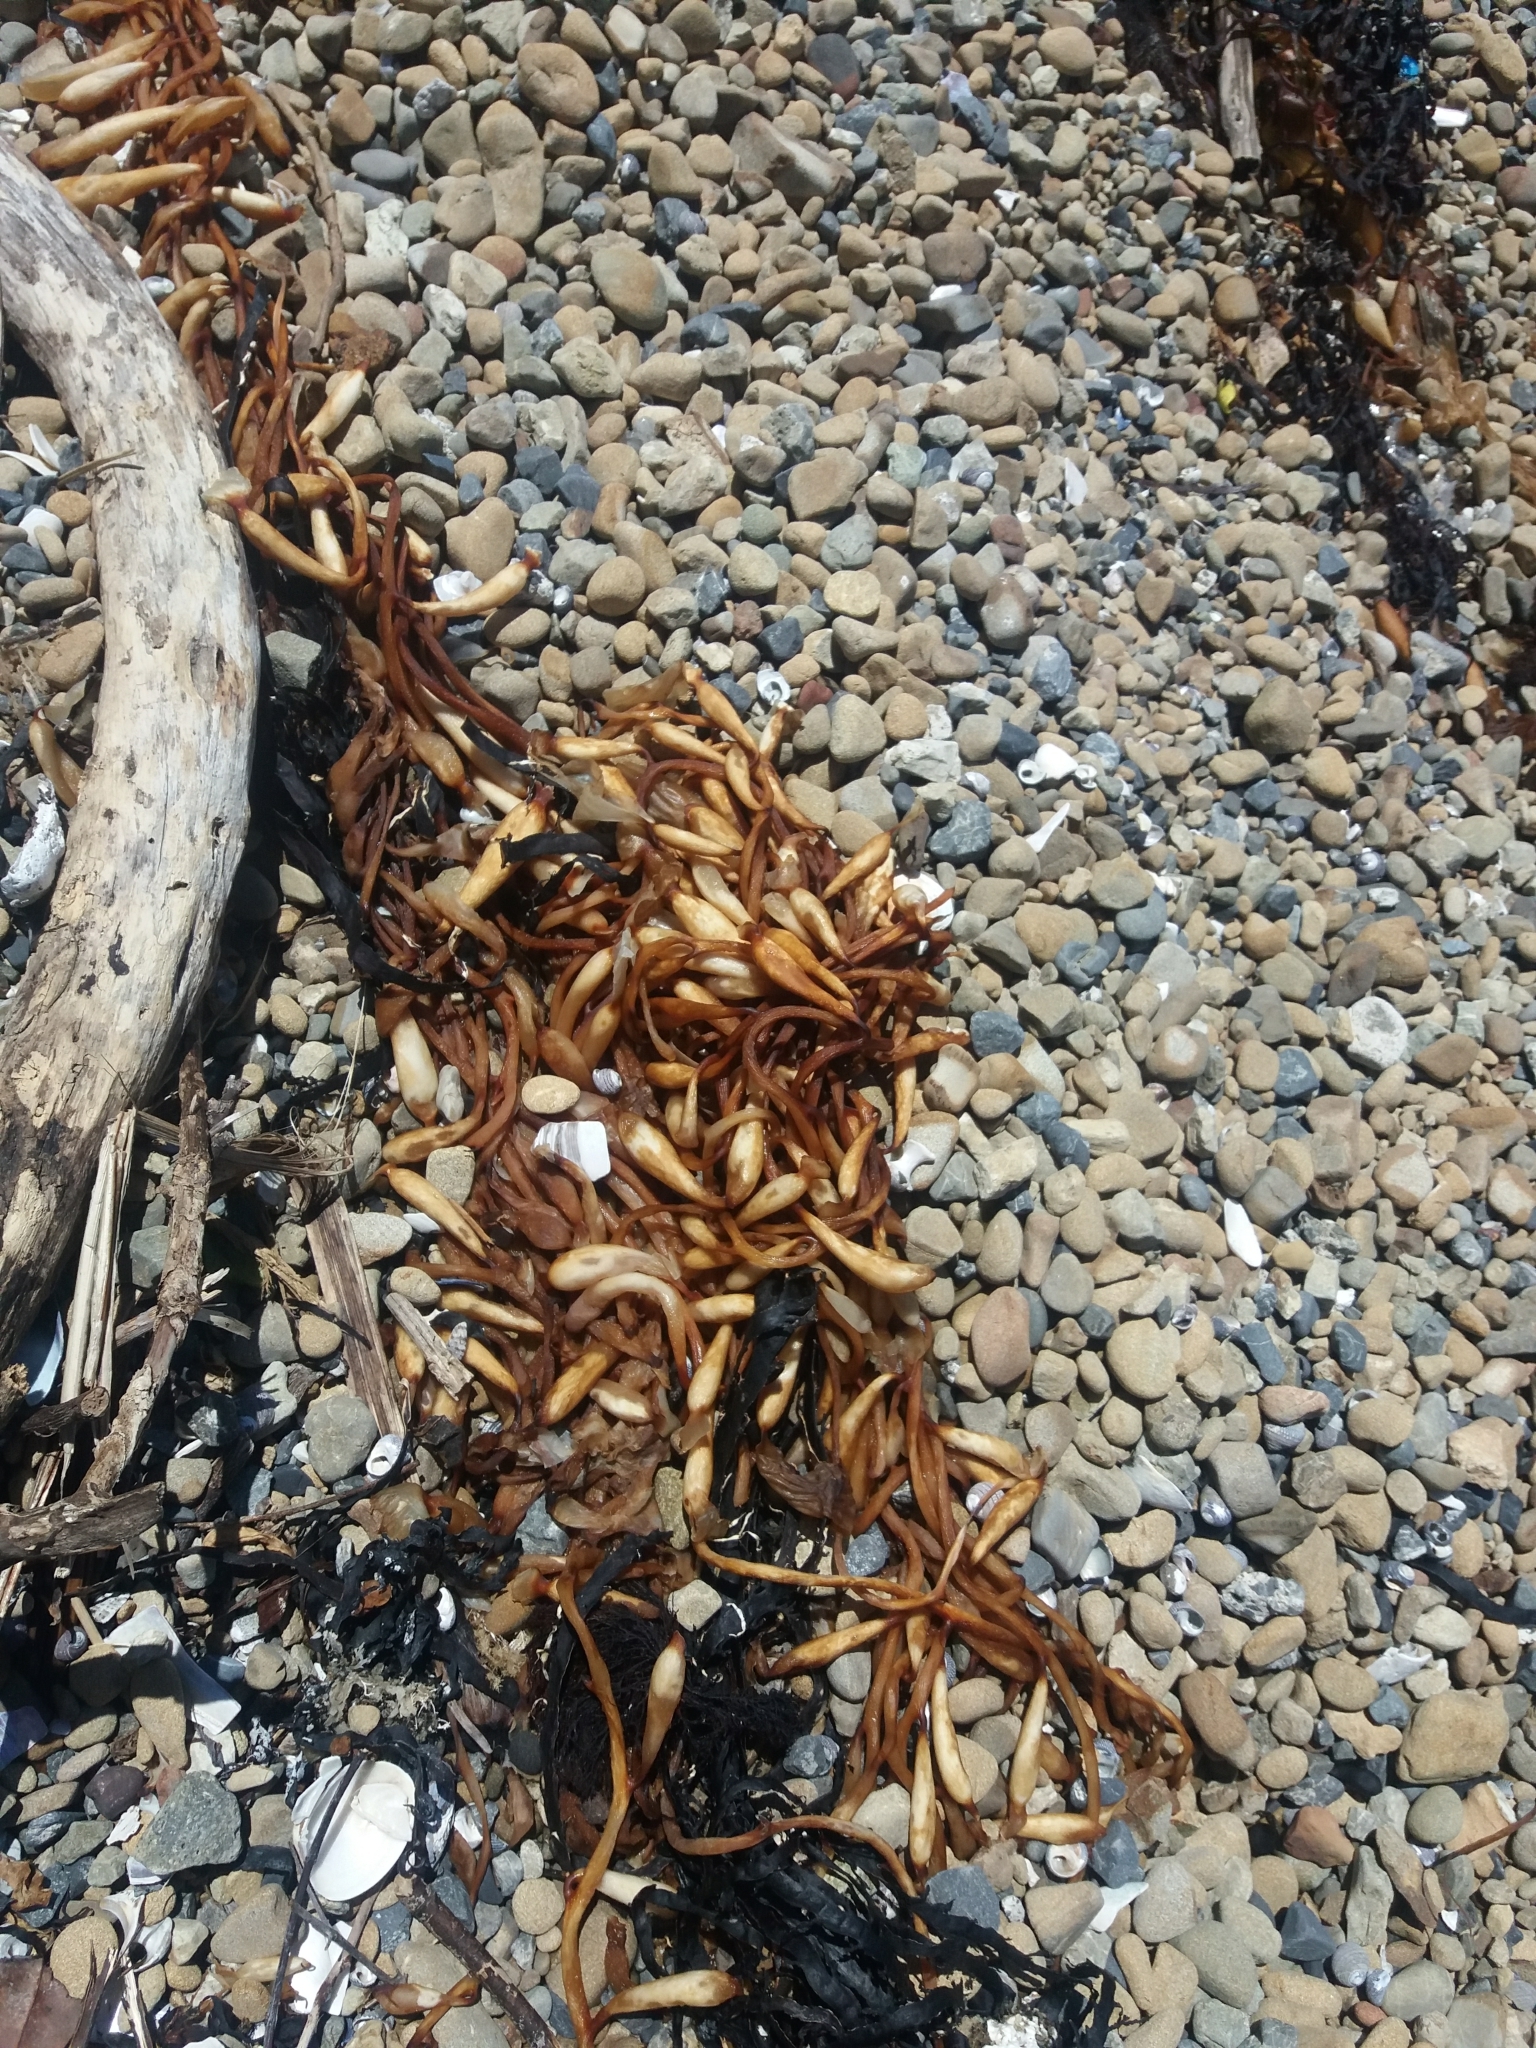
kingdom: Chromista
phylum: Ochrophyta
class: Phaeophyceae
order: Laminariales
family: Laminariaceae
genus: Macrocystis
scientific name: Macrocystis pyrifera
